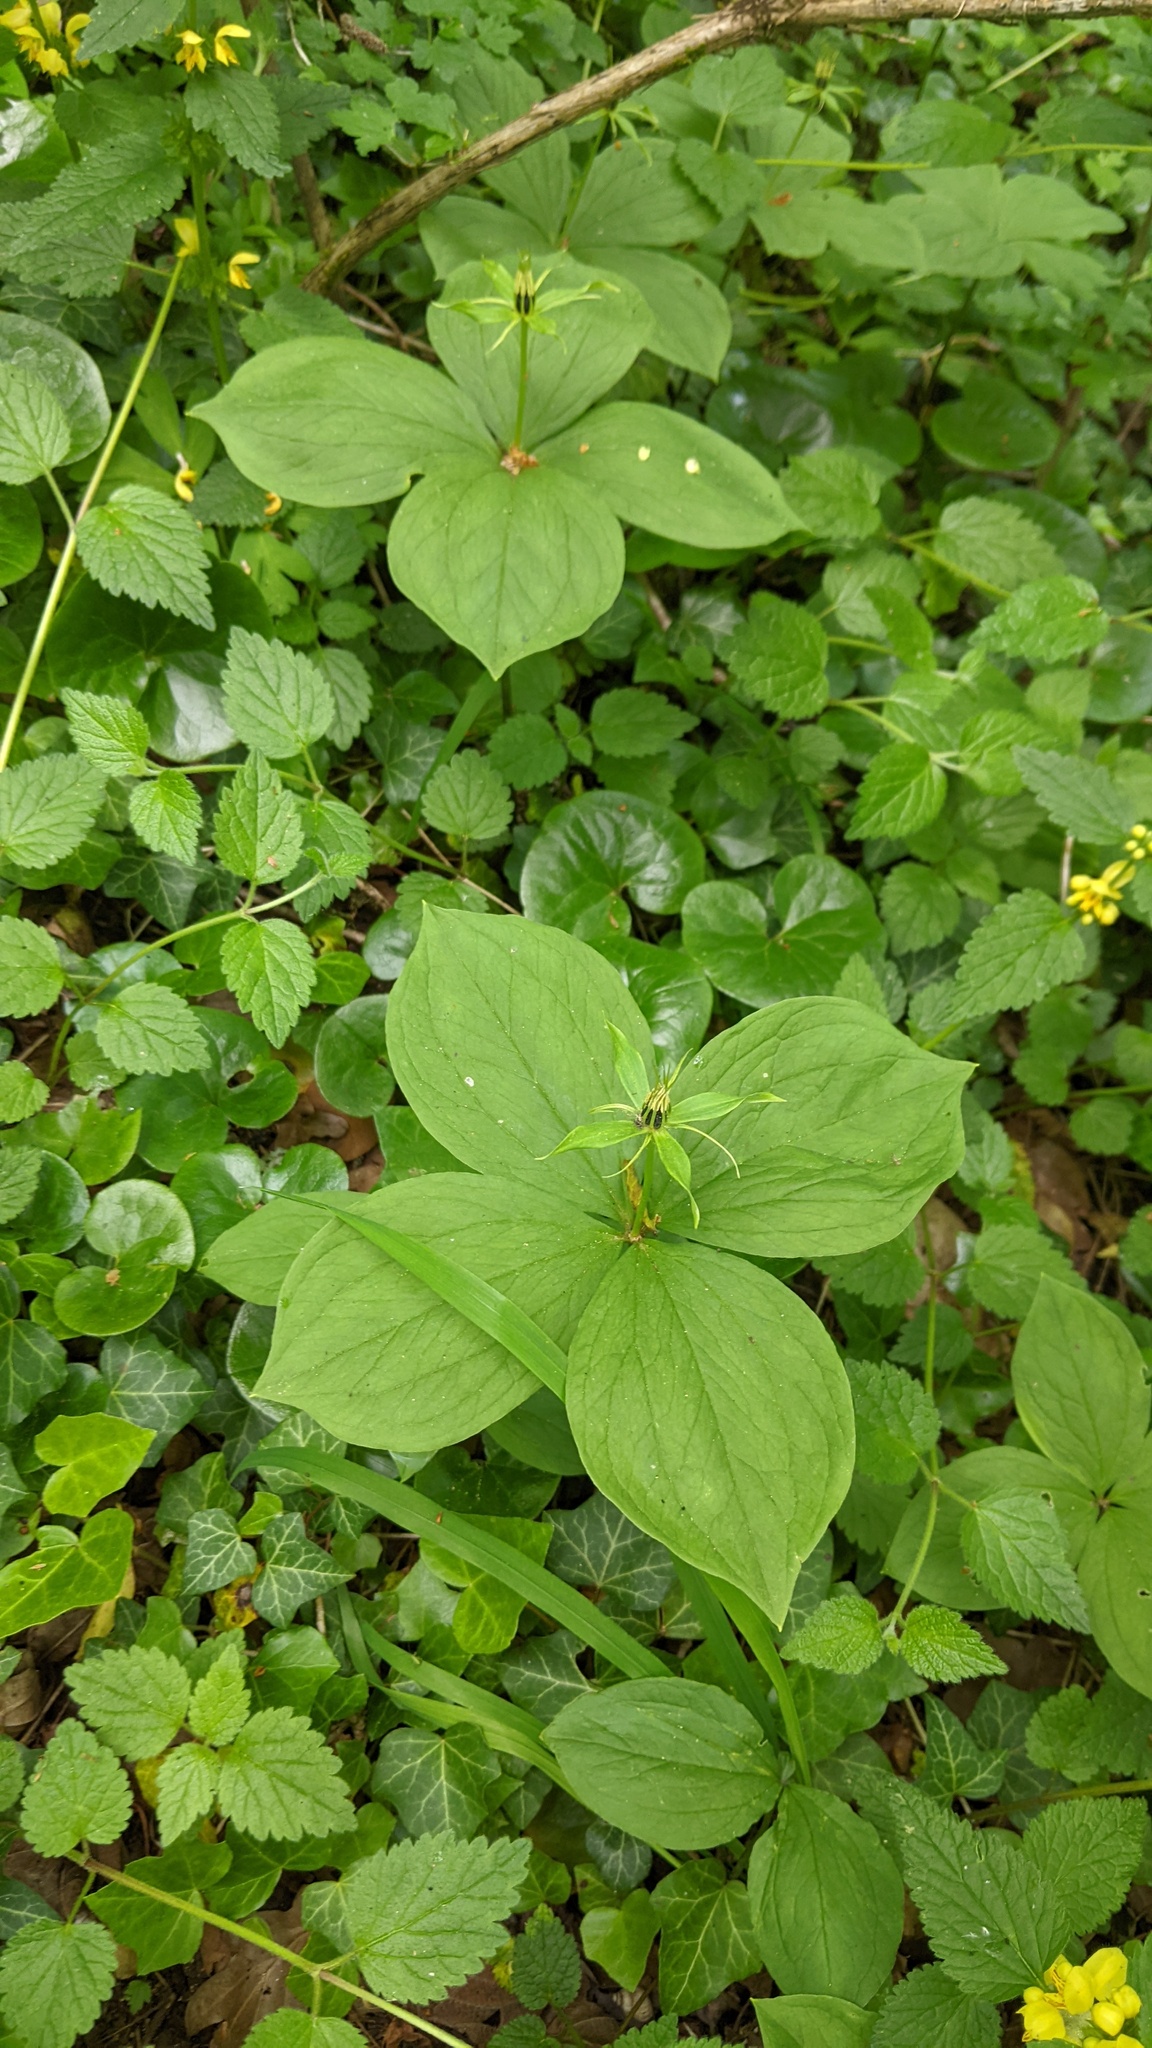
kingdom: Plantae
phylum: Tracheophyta
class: Liliopsida
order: Liliales
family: Melanthiaceae
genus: Paris
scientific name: Paris quadrifolia
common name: Herb-paris
